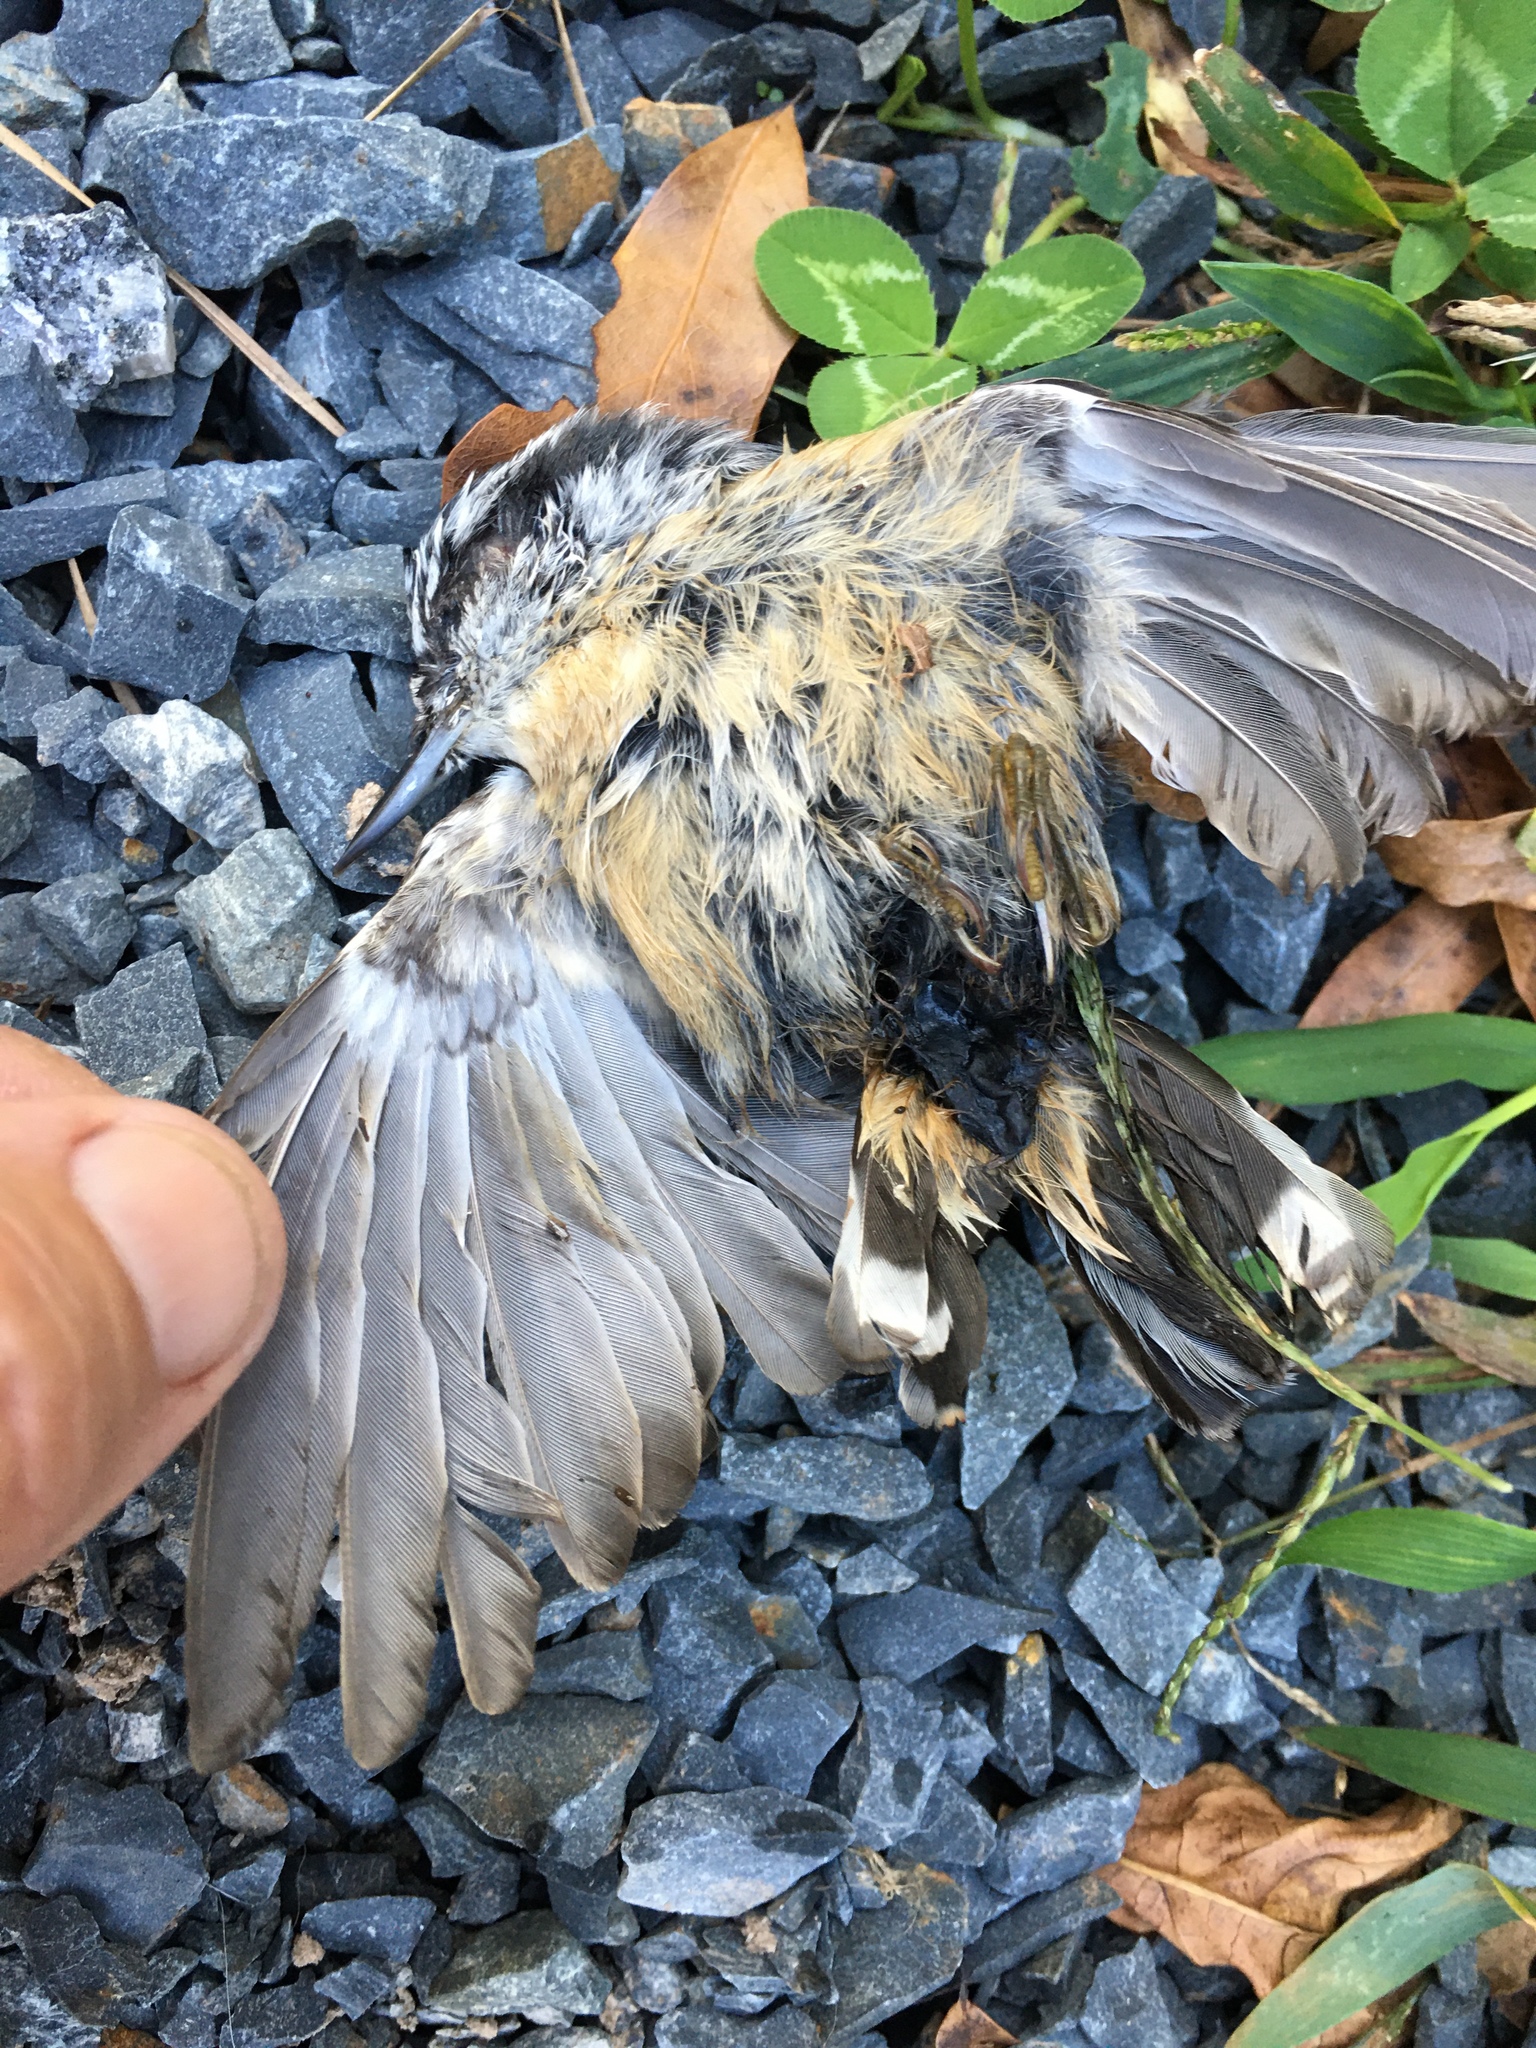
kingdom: Animalia
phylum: Chordata
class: Aves
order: Passeriformes
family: Sittidae
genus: Sitta
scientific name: Sitta canadensis
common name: Red-breasted nuthatch
